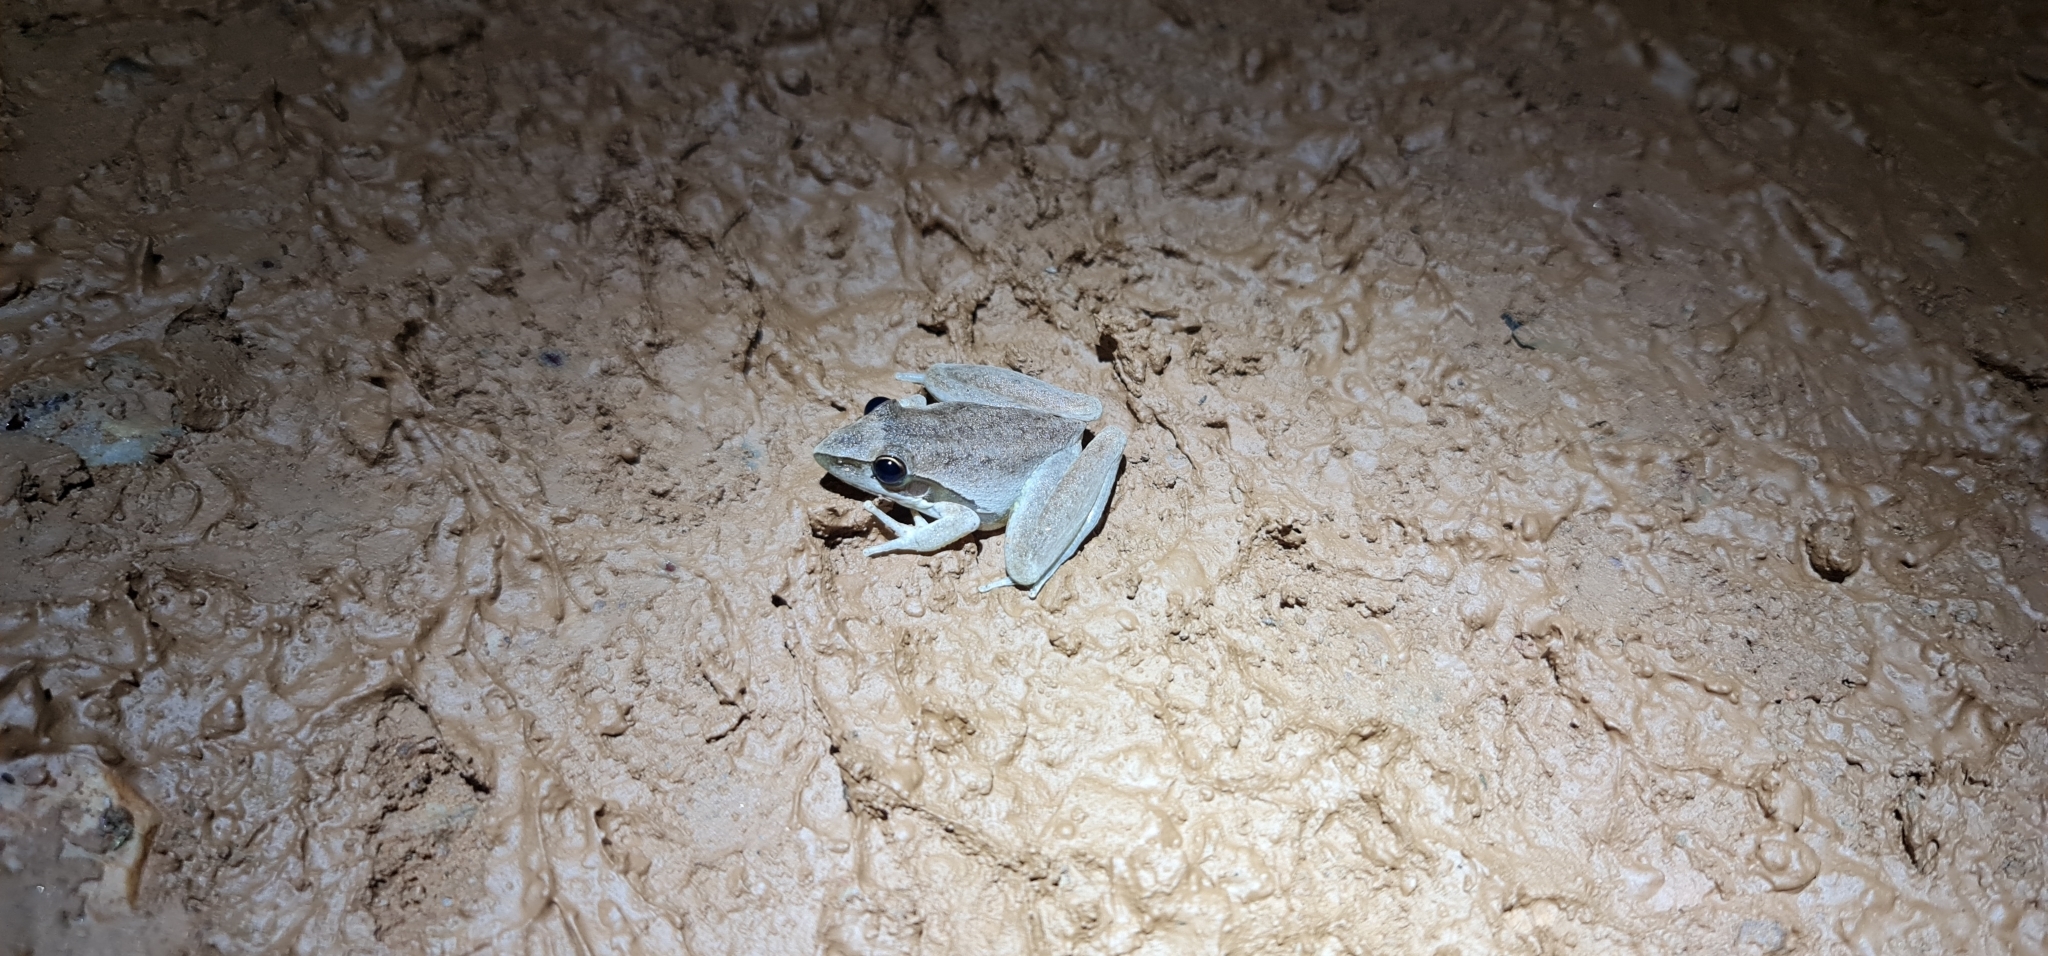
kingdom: Animalia
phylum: Chordata
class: Amphibia
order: Anura
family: Pelodryadidae
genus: Litoria
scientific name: Litoria watjulumensis
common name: Wotjulum frog
